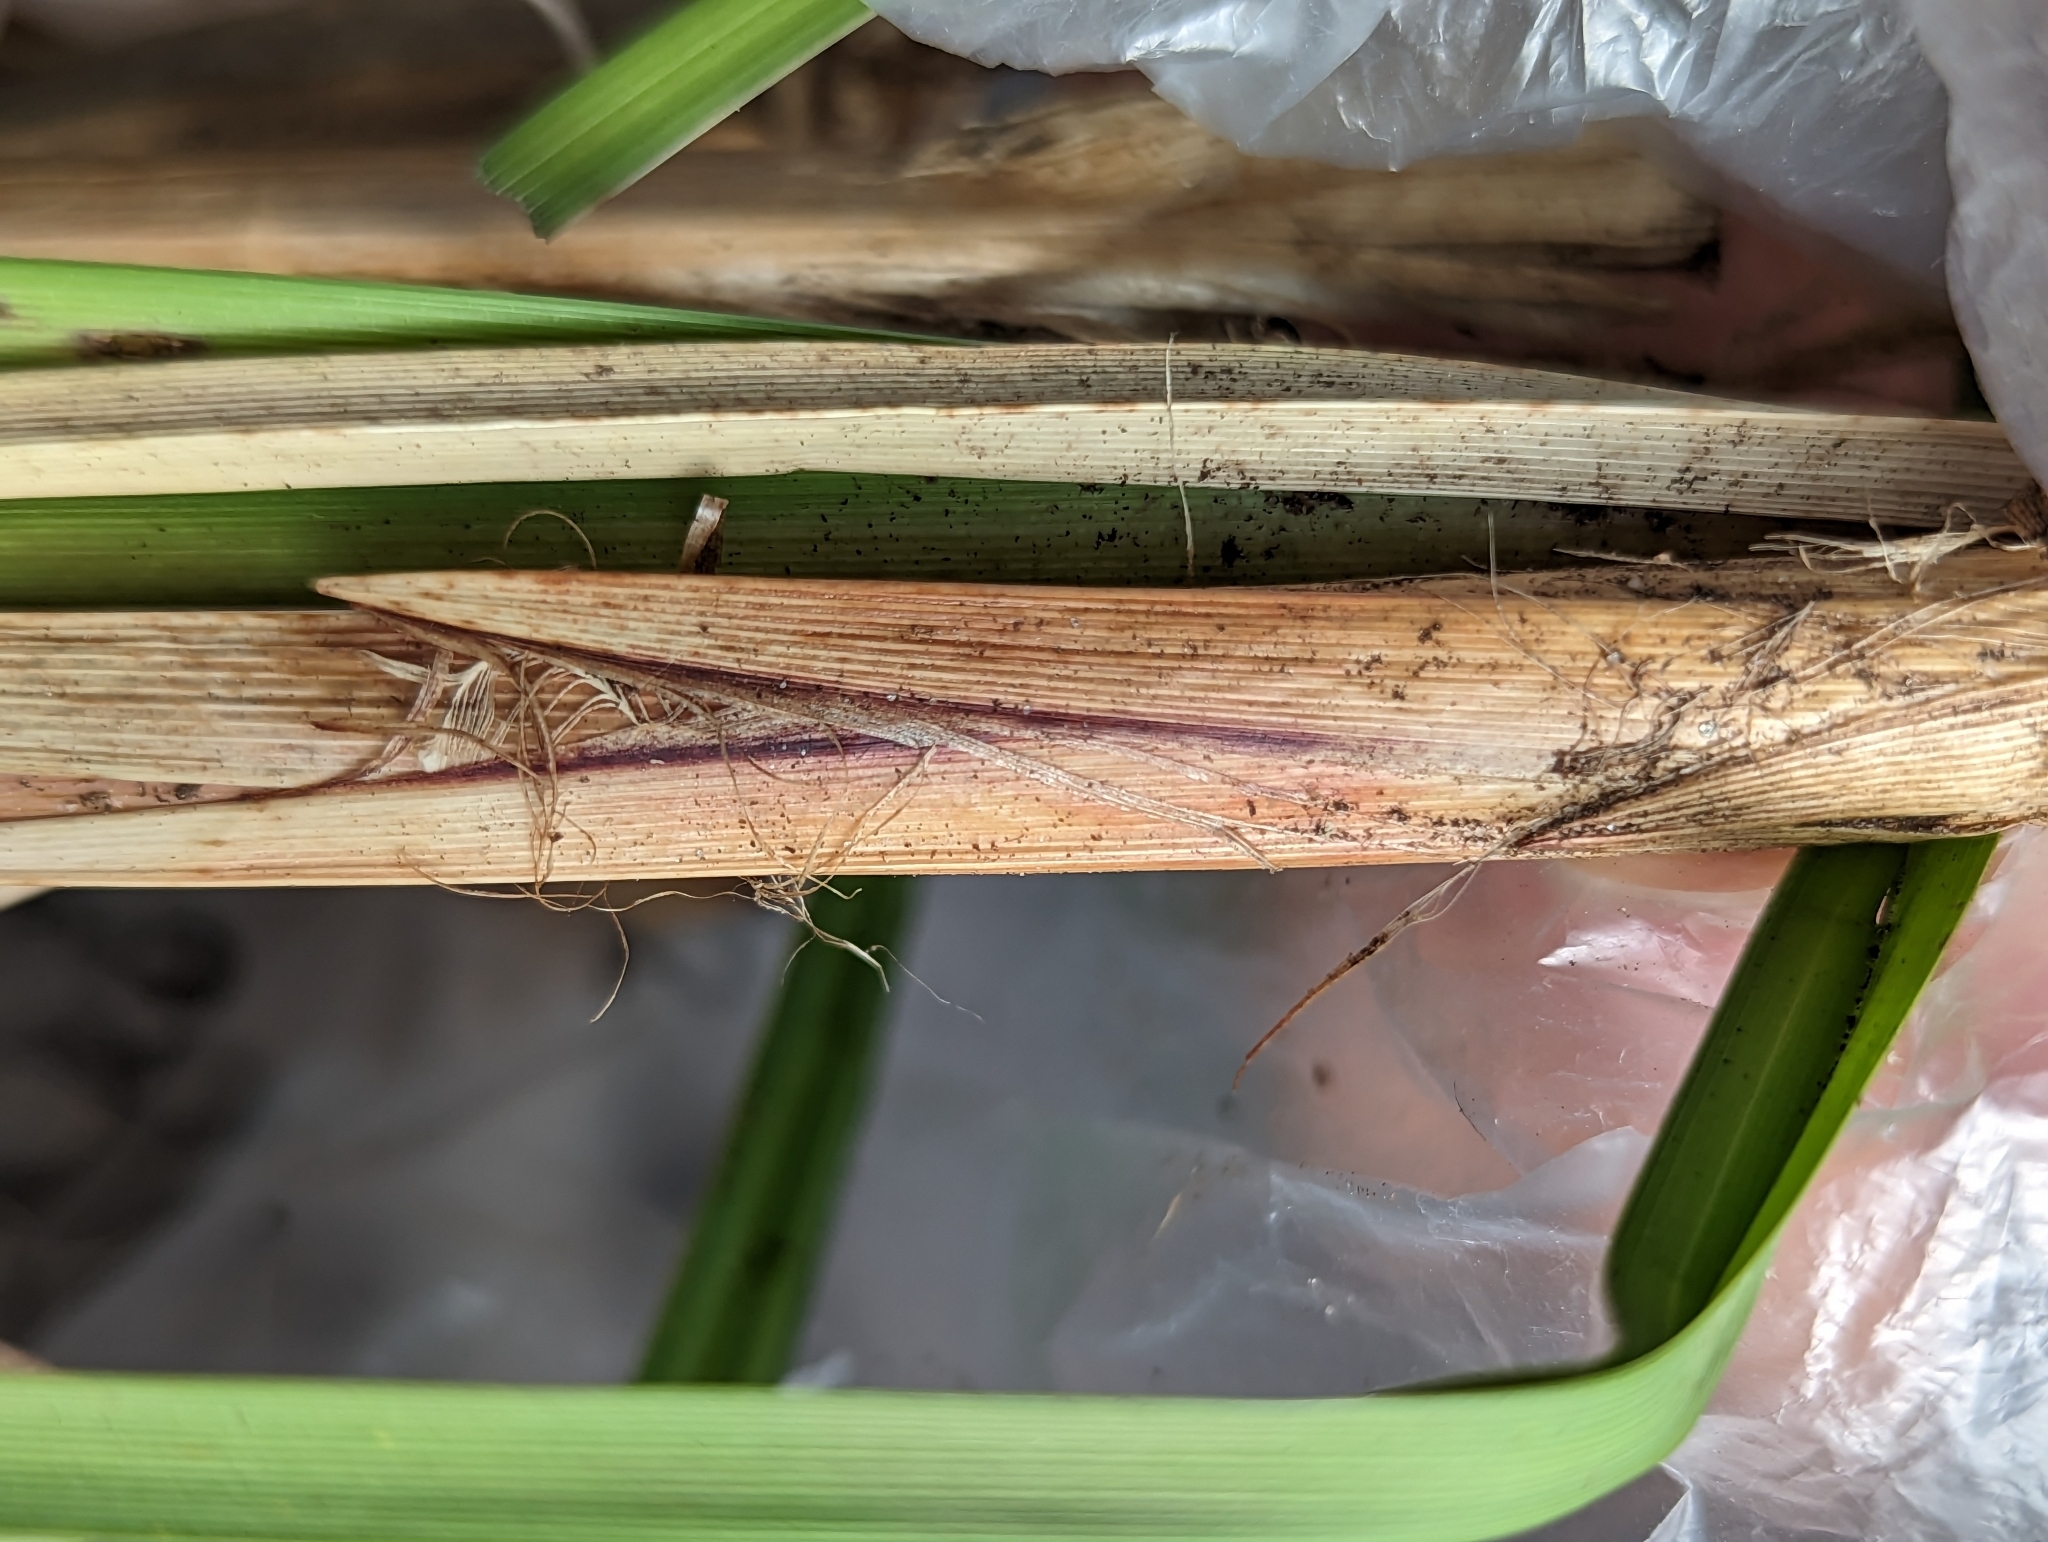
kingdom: Plantae
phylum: Tracheophyta
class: Liliopsida
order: Poales
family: Cyperaceae
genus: Carex
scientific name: Carex riparia
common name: Greater pond-sedge
